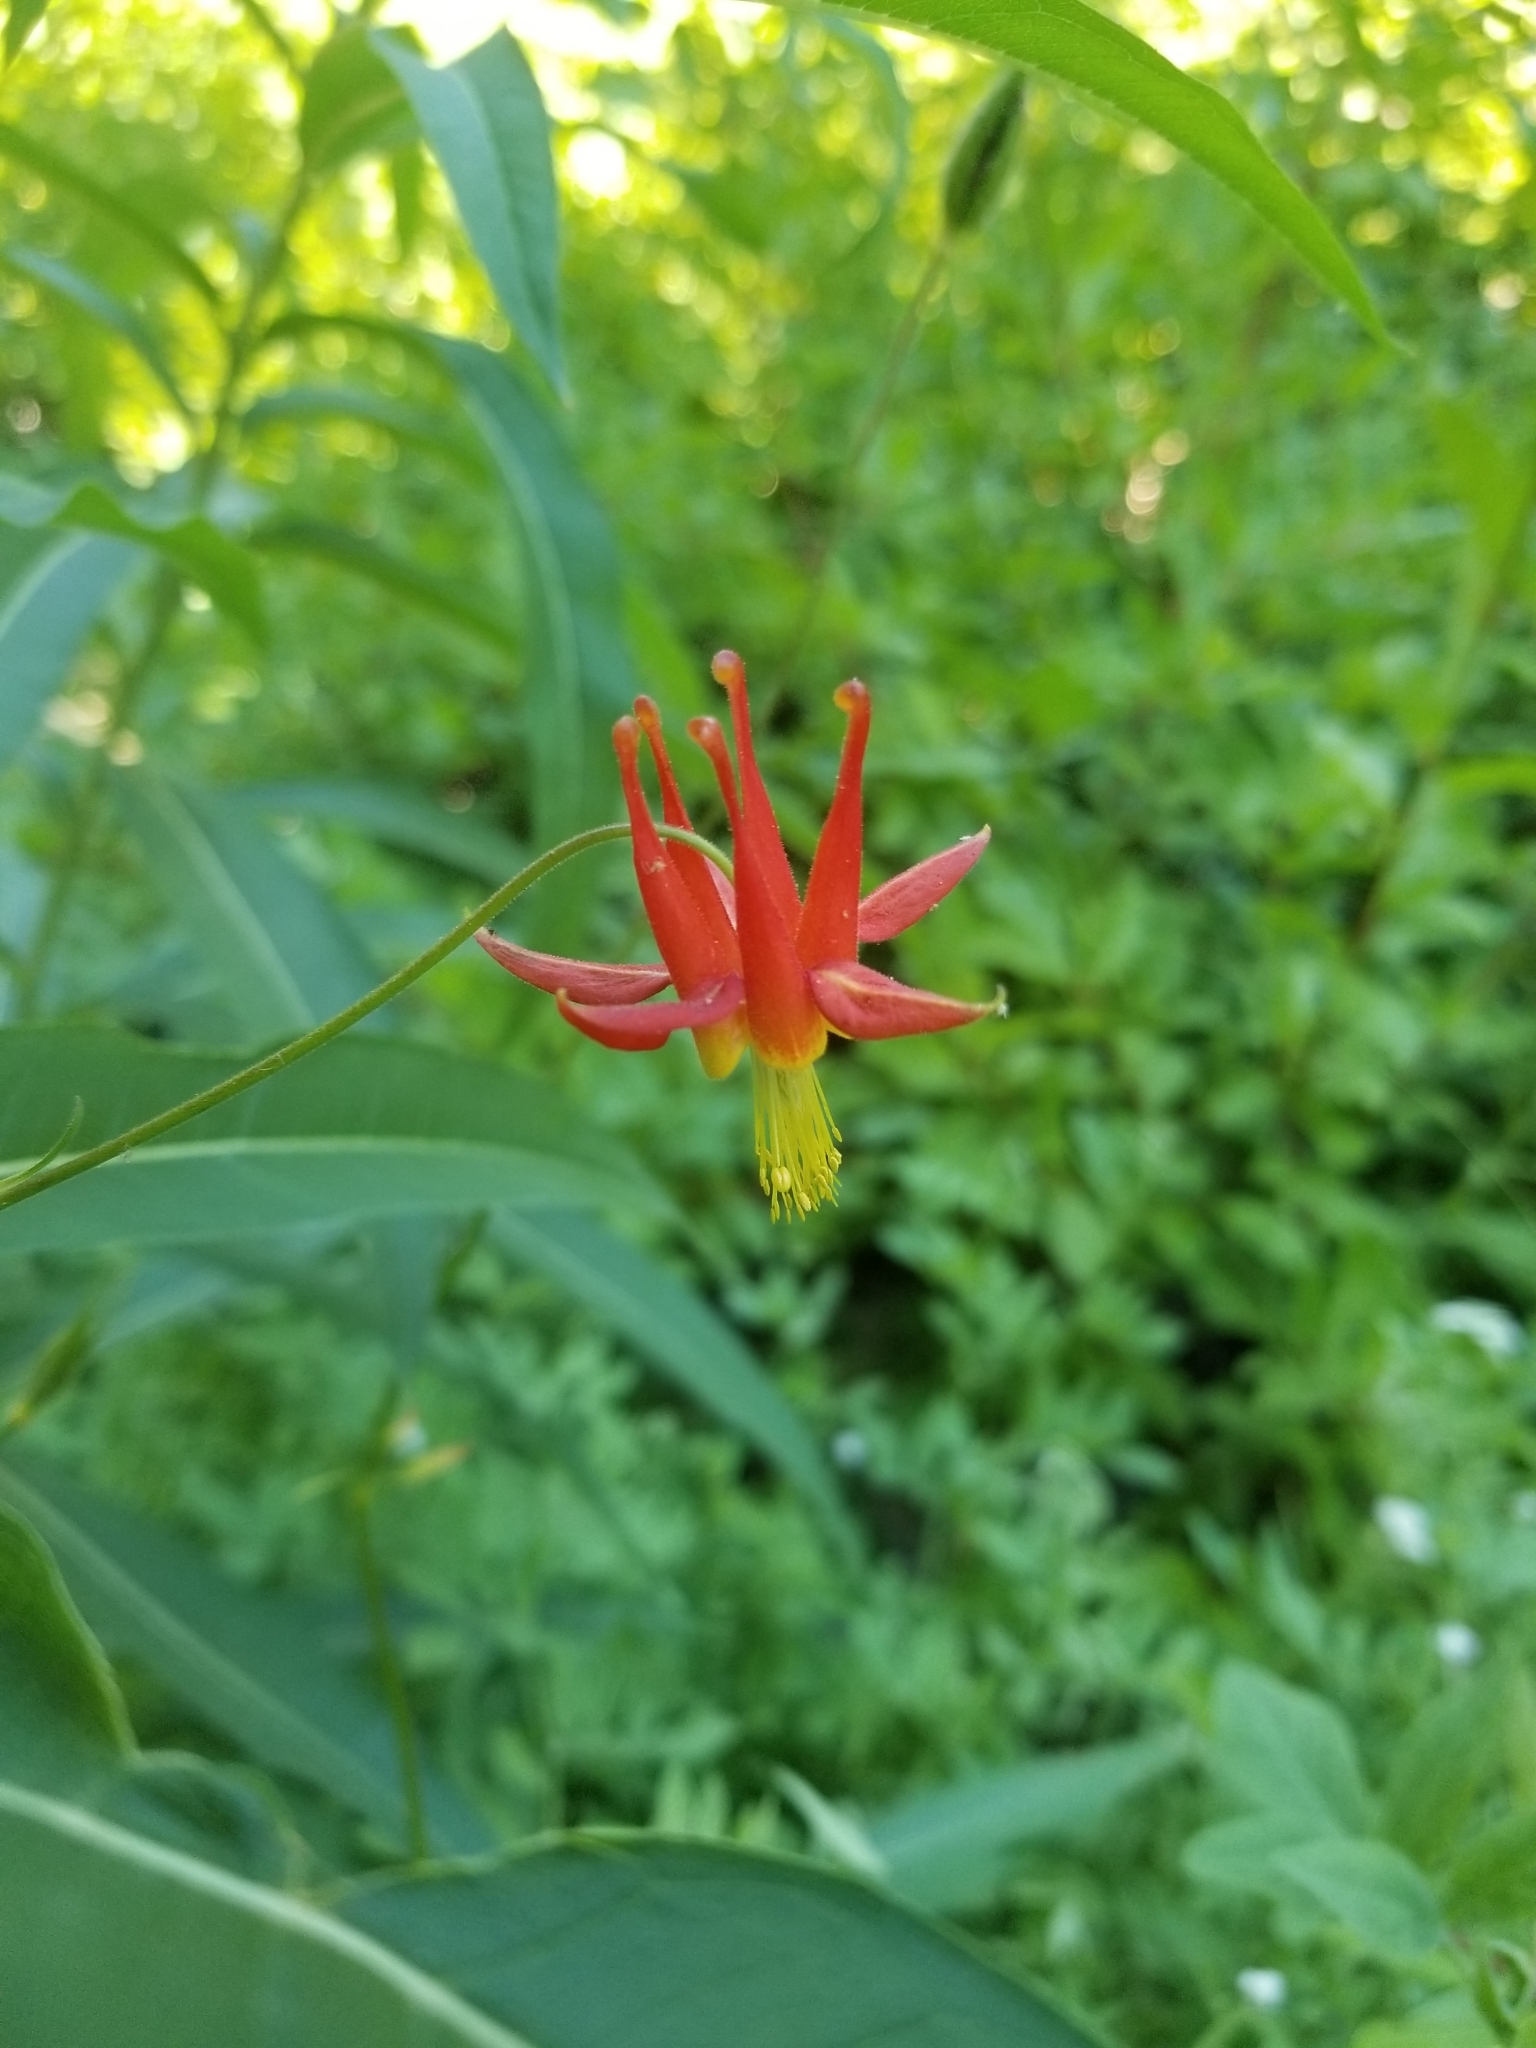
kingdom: Plantae
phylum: Tracheophyta
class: Magnoliopsida
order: Ranunculales
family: Ranunculaceae
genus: Aquilegia
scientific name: Aquilegia formosa
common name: Sitka columbine
